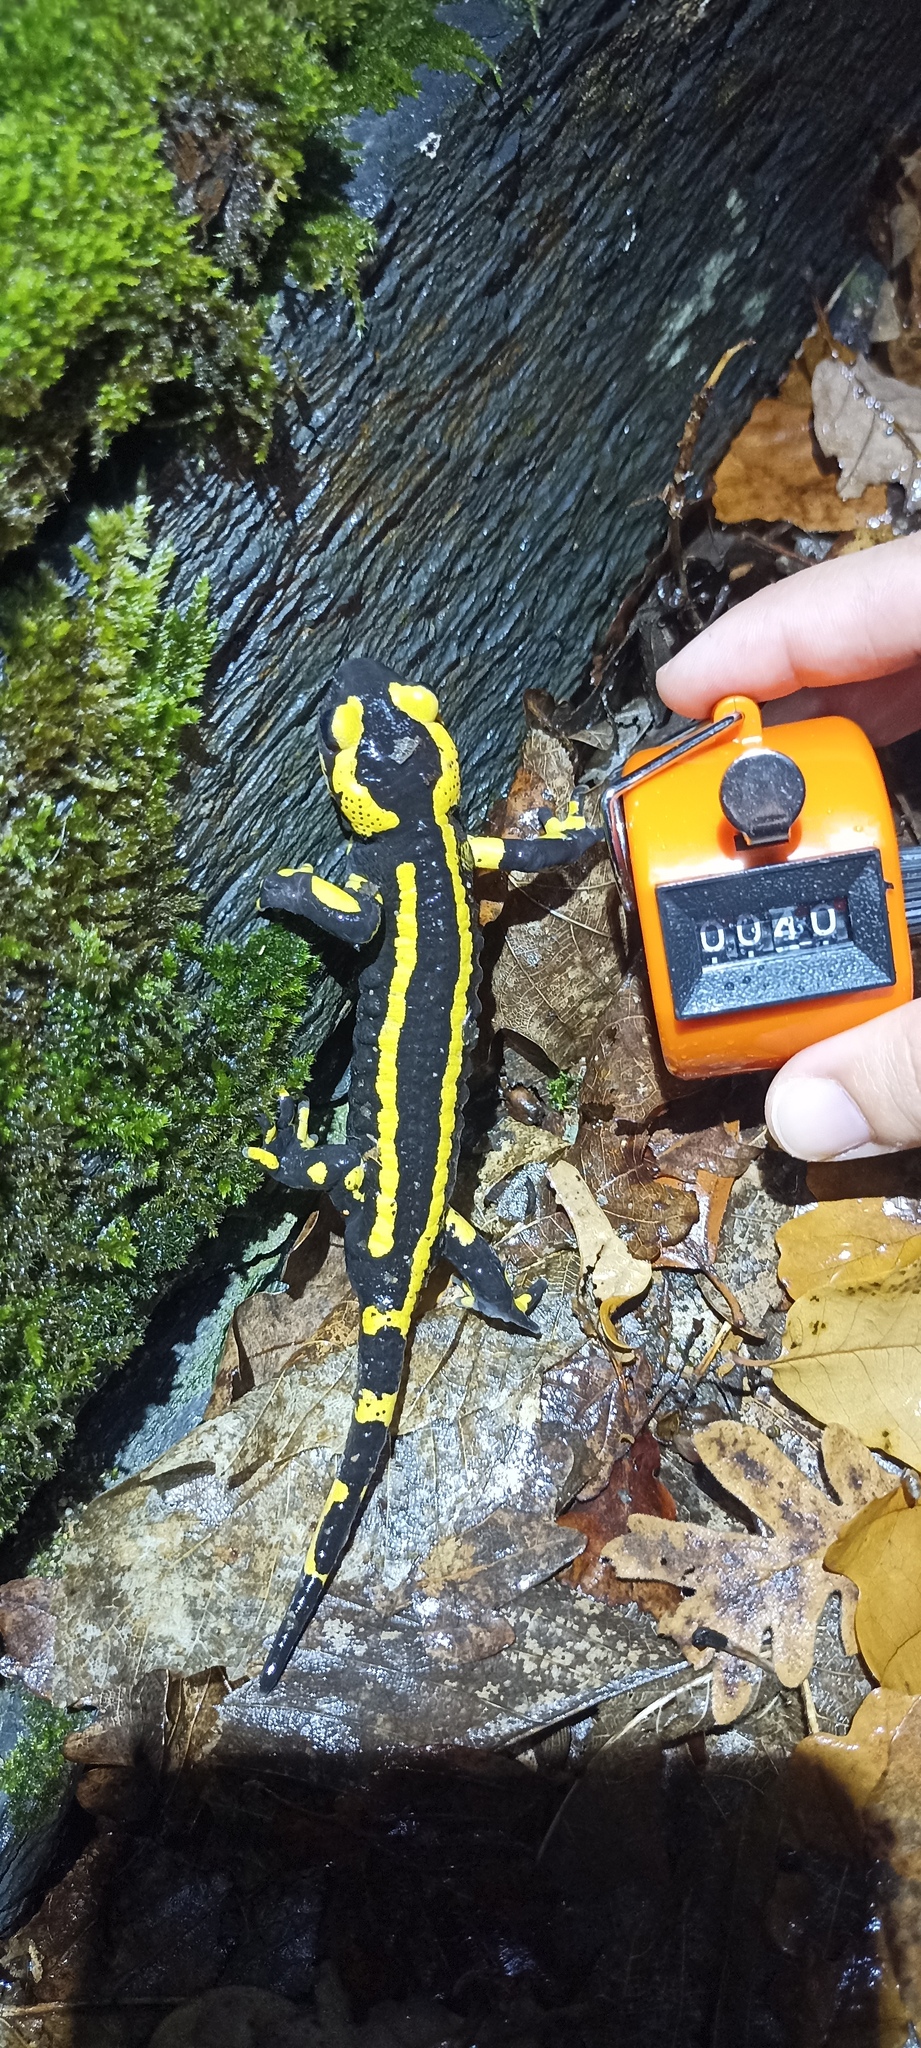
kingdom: Animalia
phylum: Chordata
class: Amphibia
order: Caudata
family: Salamandridae
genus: Salamandra
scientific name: Salamandra salamandra
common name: Fire salamander
